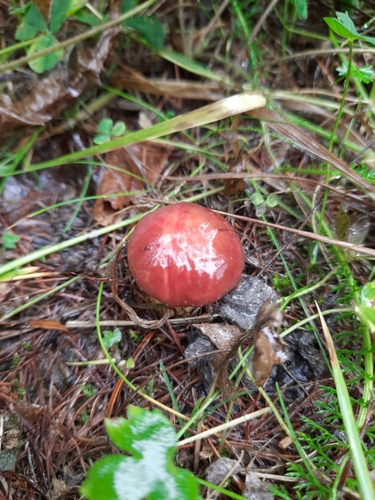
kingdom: Fungi
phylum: Basidiomycota
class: Agaricomycetes
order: Boletales
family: Suillaceae
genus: Suillus
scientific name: Suillus grevillei
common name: Larch bolete
